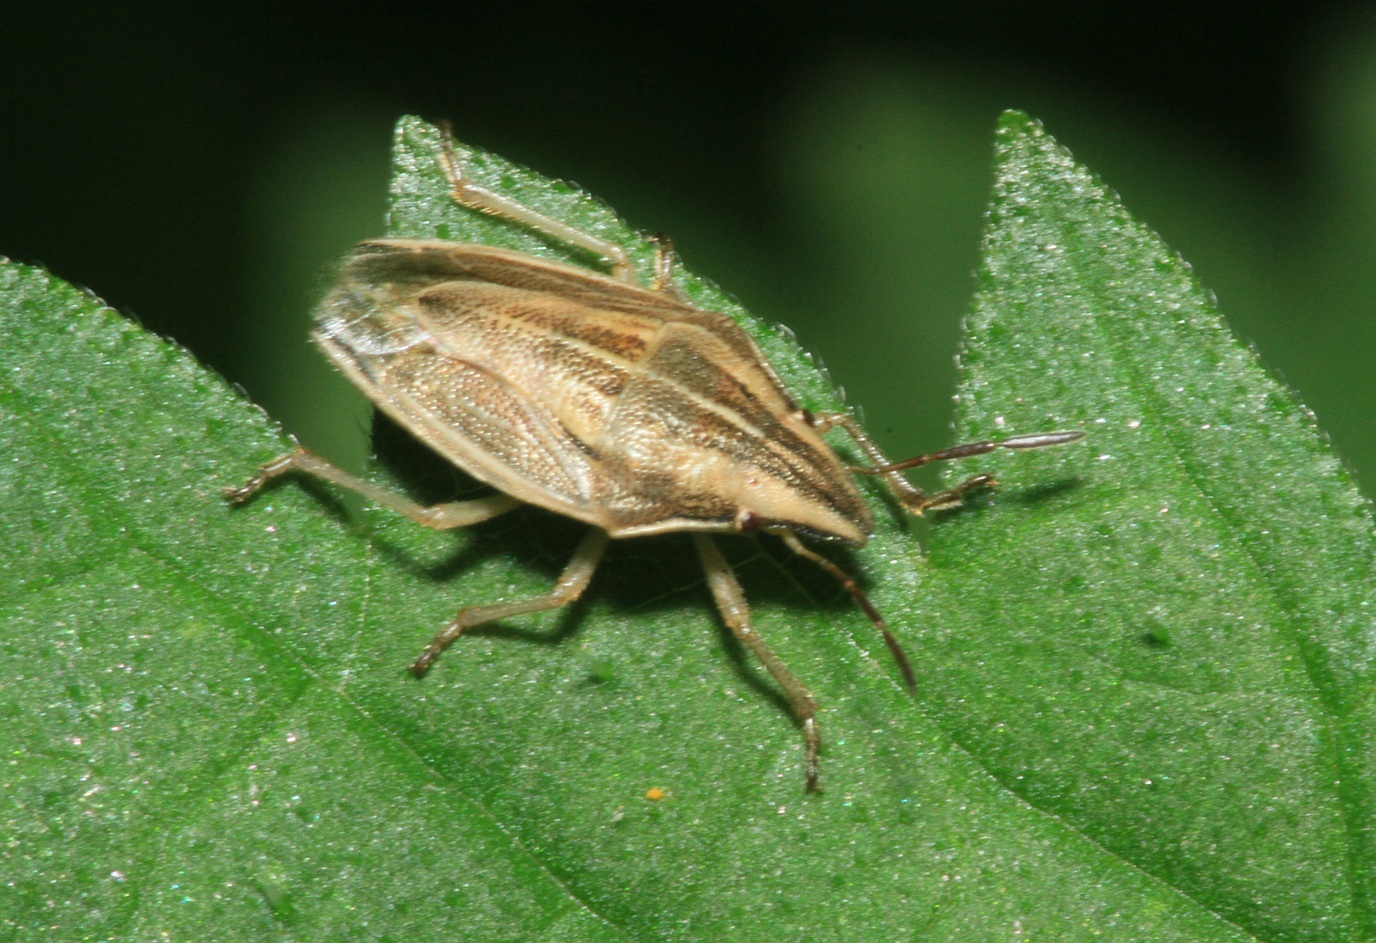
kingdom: Animalia
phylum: Arthropoda
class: Insecta
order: Hemiptera
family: Pentatomidae
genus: Aelia
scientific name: Aelia acuminata
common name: Bishop's mitre
